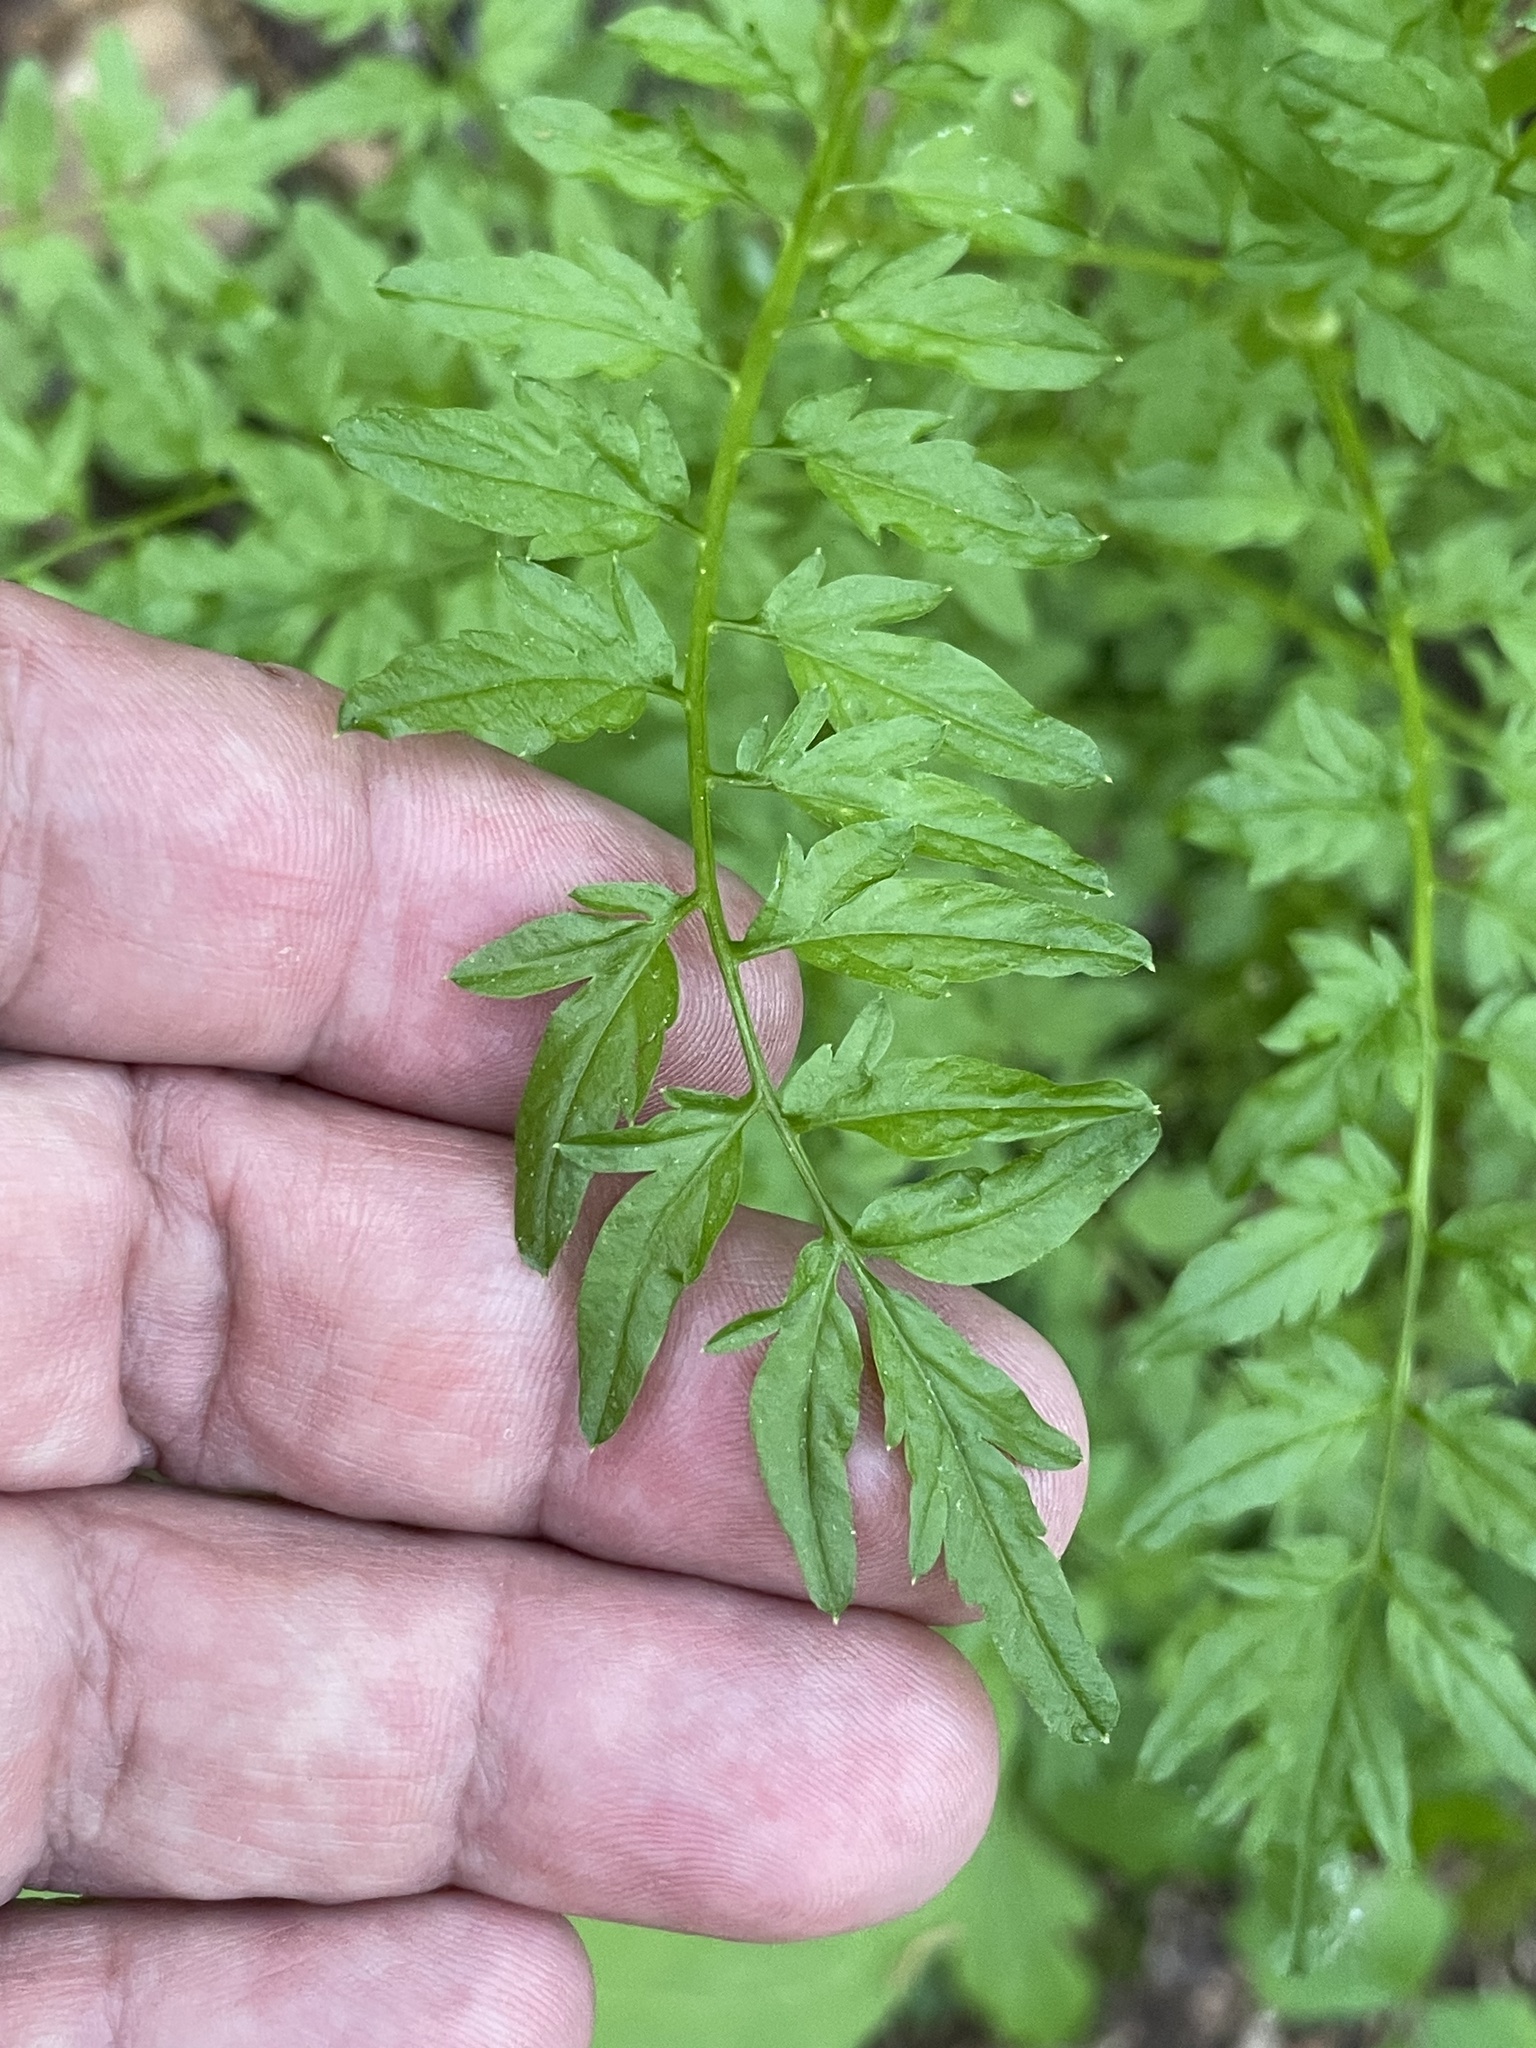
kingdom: Plantae
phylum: Tracheophyta
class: Magnoliopsida
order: Brassicales
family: Brassicaceae
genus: Cardamine
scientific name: Cardamine impatiens
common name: Narrow-leaved bitter-cress
